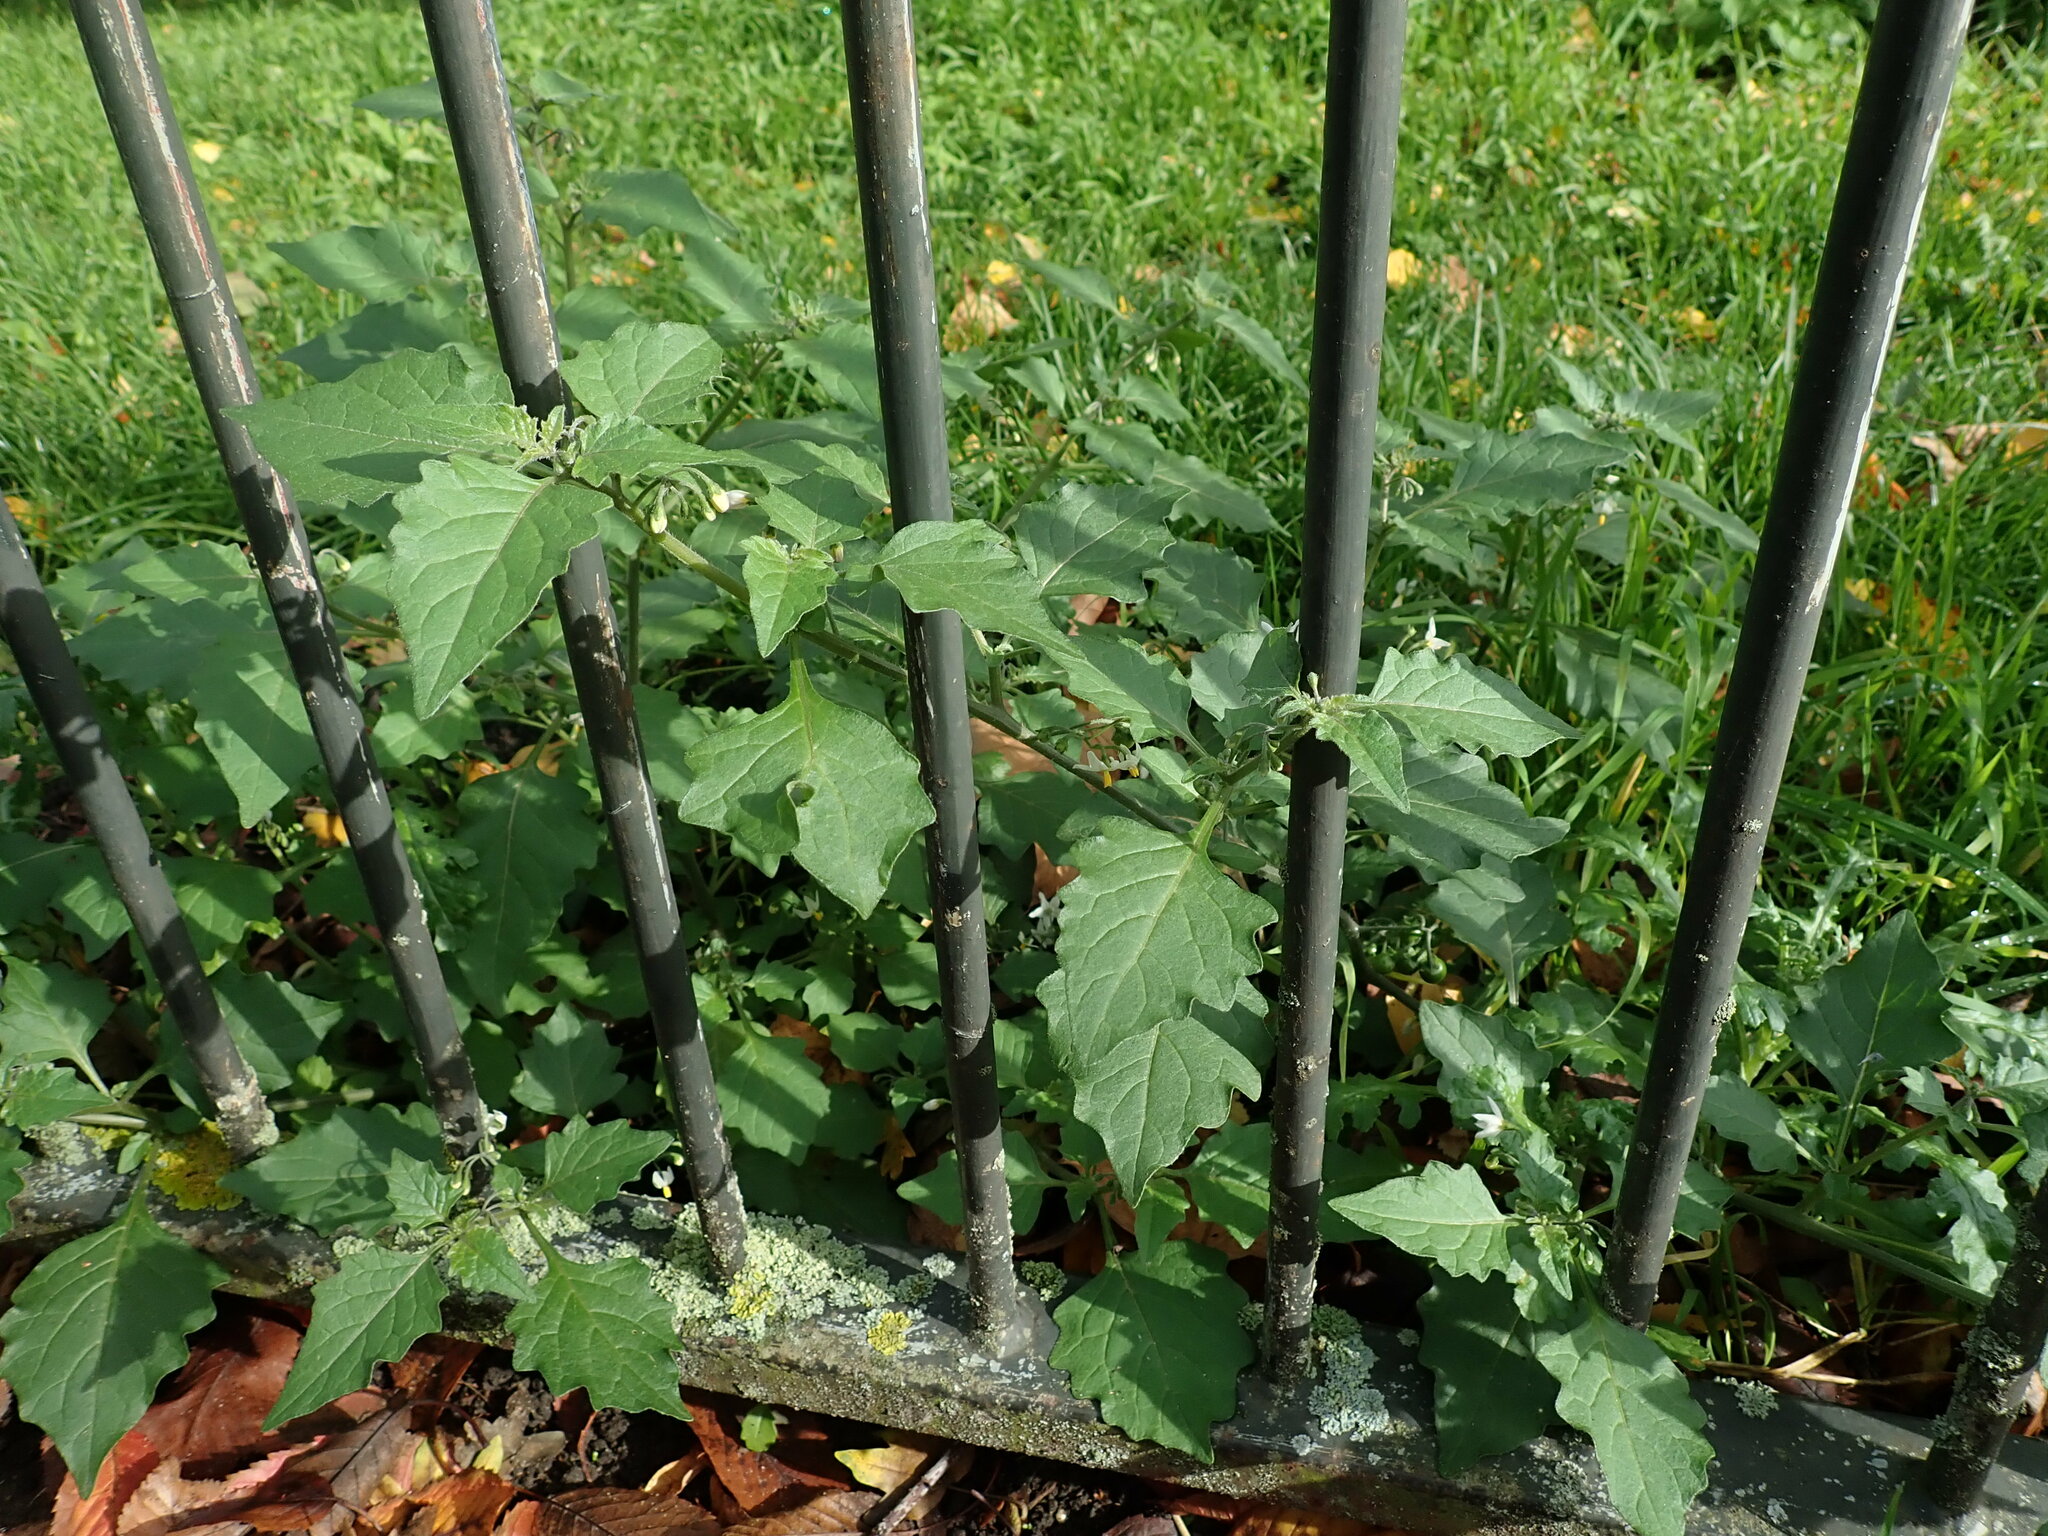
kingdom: Plantae
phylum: Tracheophyta
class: Magnoliopsida
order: Solanales
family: Solanaceae
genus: Solanum
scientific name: Solanum nigrum
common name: Black nightshade
